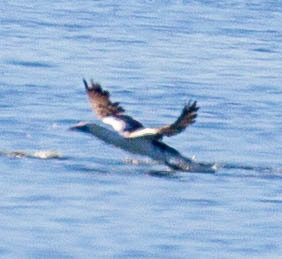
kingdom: Animalia
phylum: Chordata
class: Aves
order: Suliformes
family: Sulidae
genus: Morus
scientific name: Morus bassanus
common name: Northern gannet
